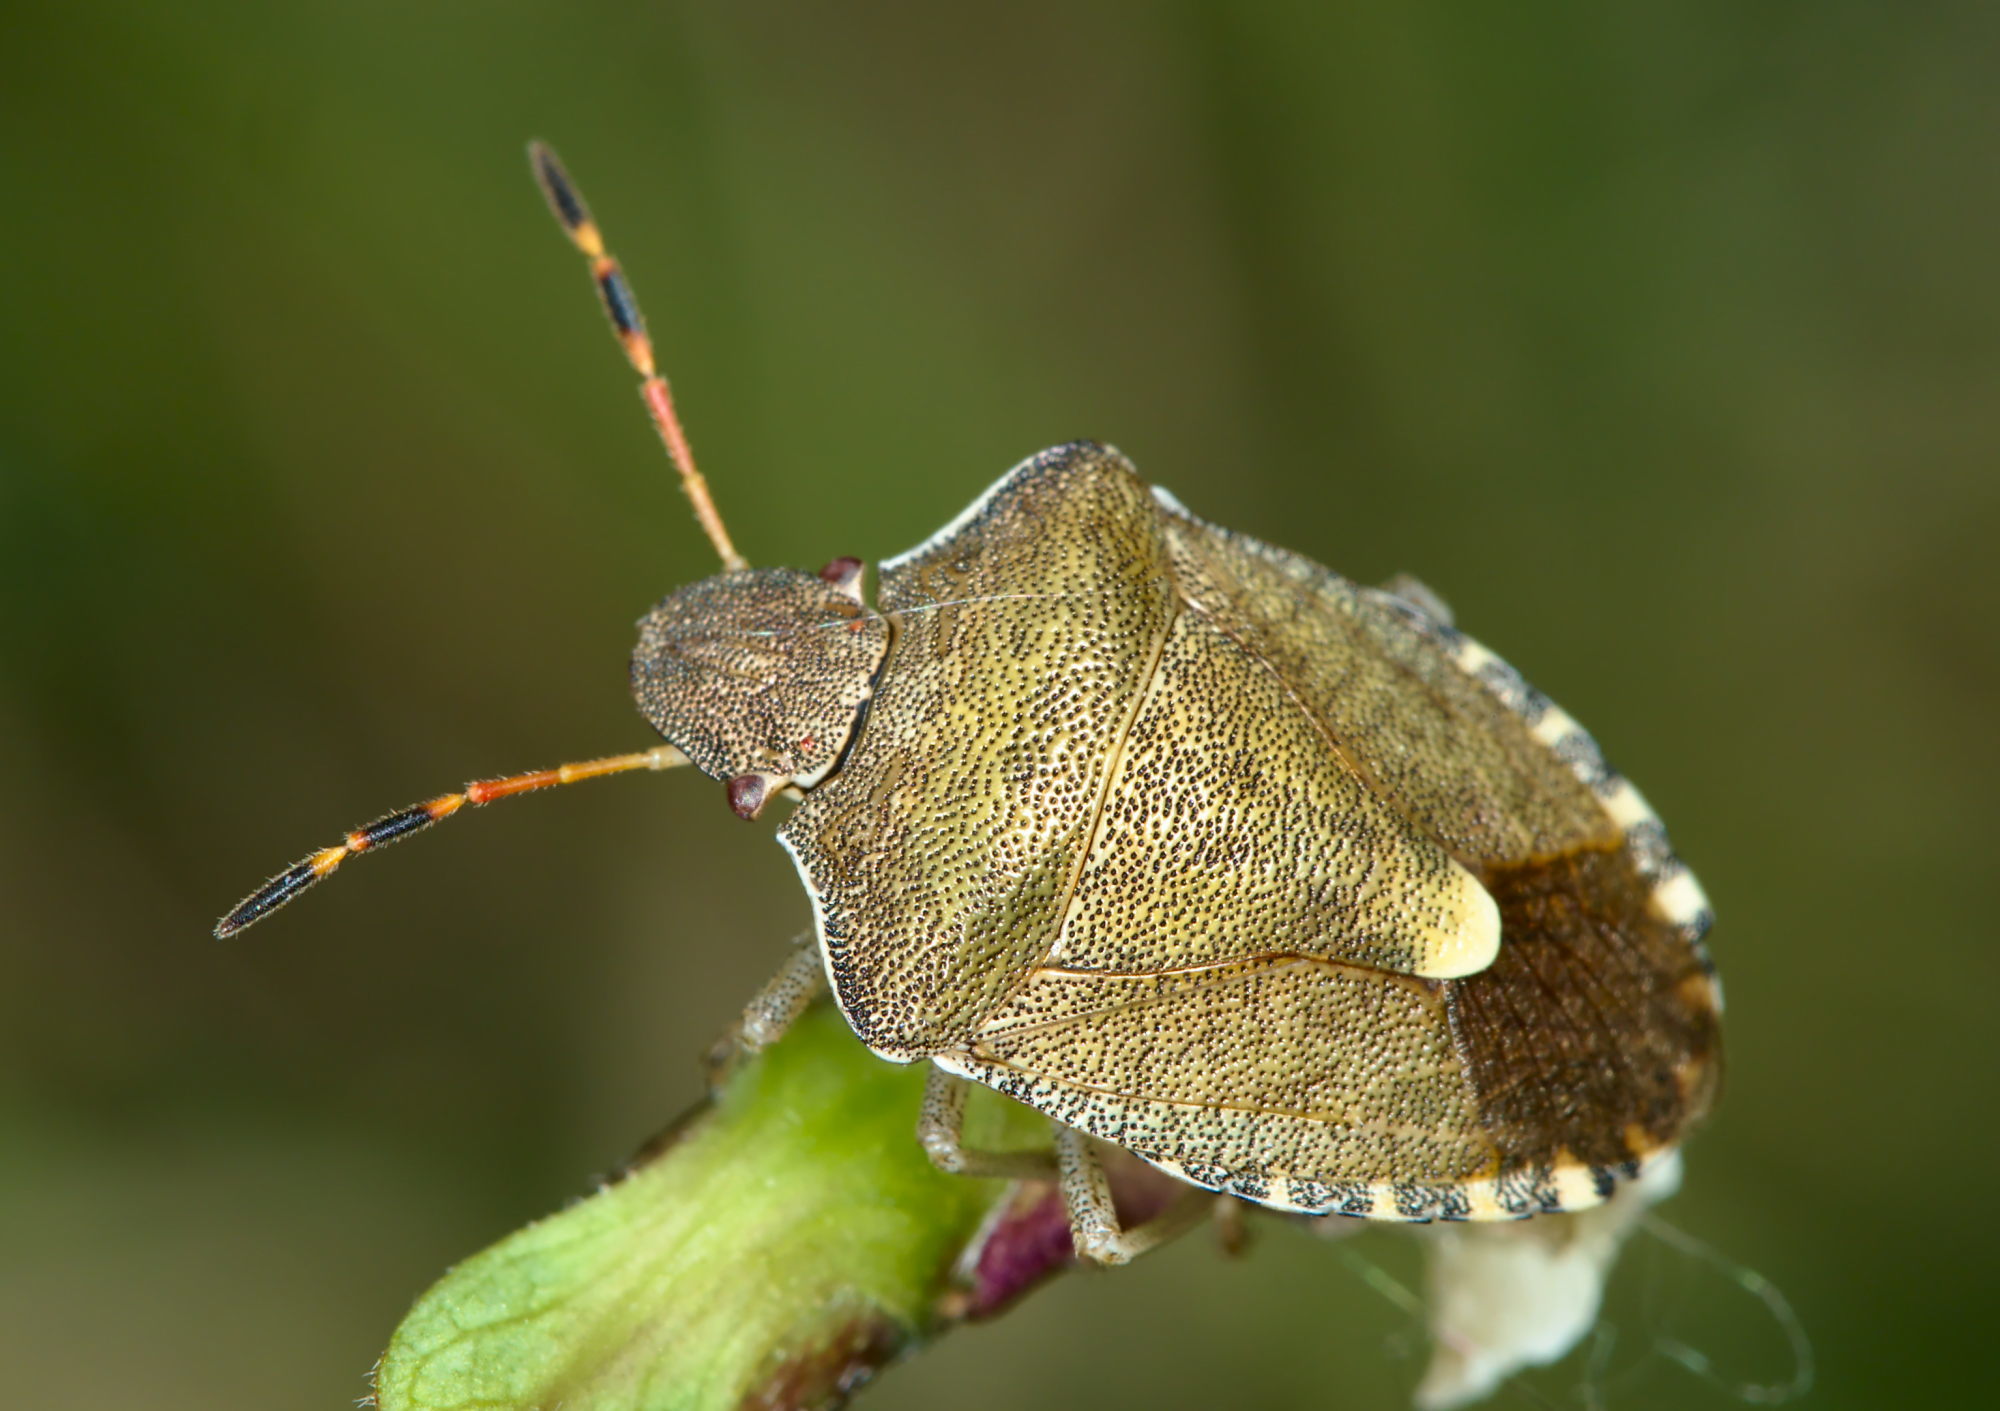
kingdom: Animalia
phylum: Arthropoda
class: Insecta
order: Hemiptera
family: Pentatomidae
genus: Holcostethus
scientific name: Holcostethus strictus
